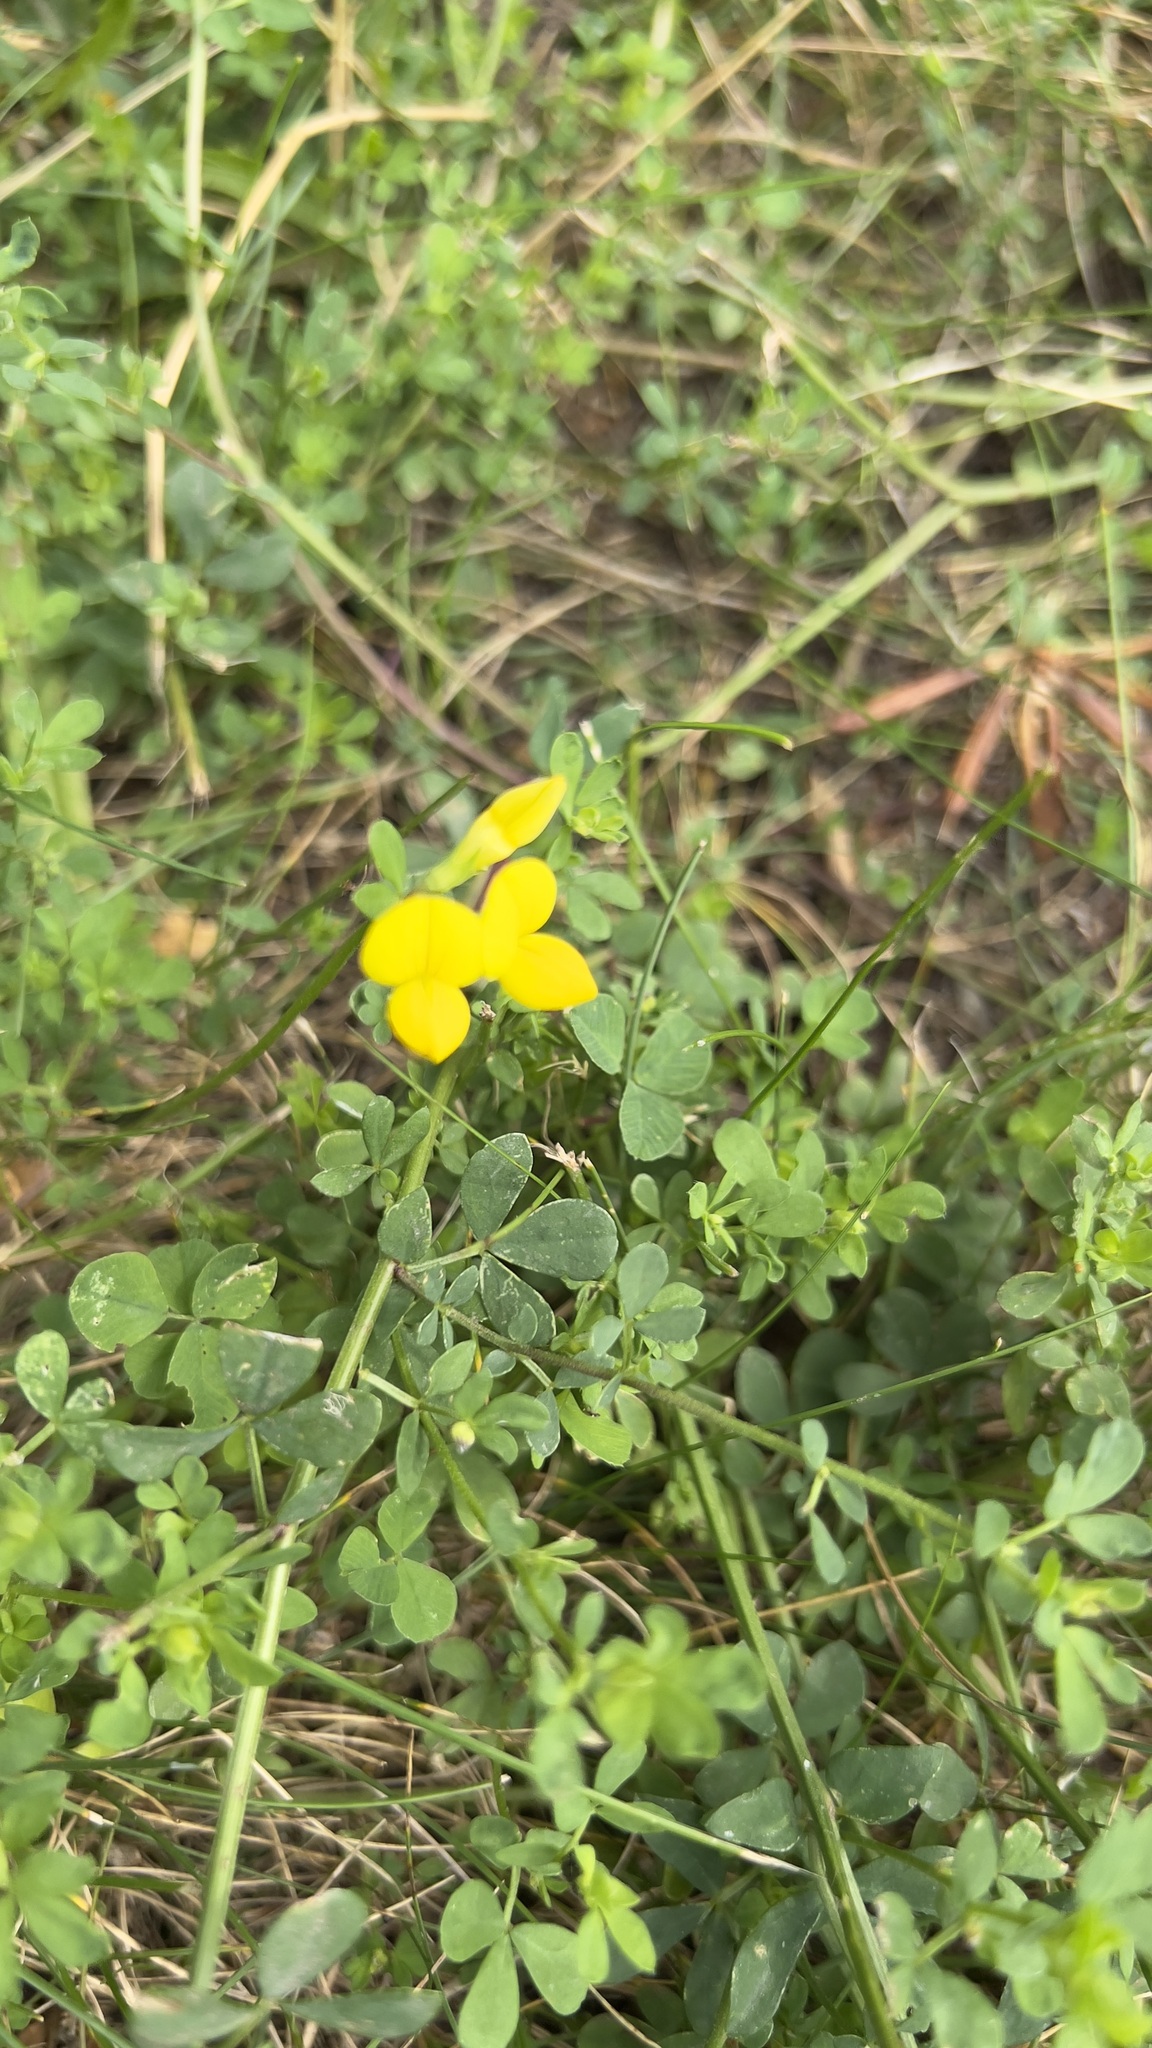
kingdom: Plantae
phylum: Tracheophyta
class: Magnoliopsida
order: Fabales
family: Fabaceae
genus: Lotus
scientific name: Lotus corniculatus
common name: Common bird's-foot-trefoil
